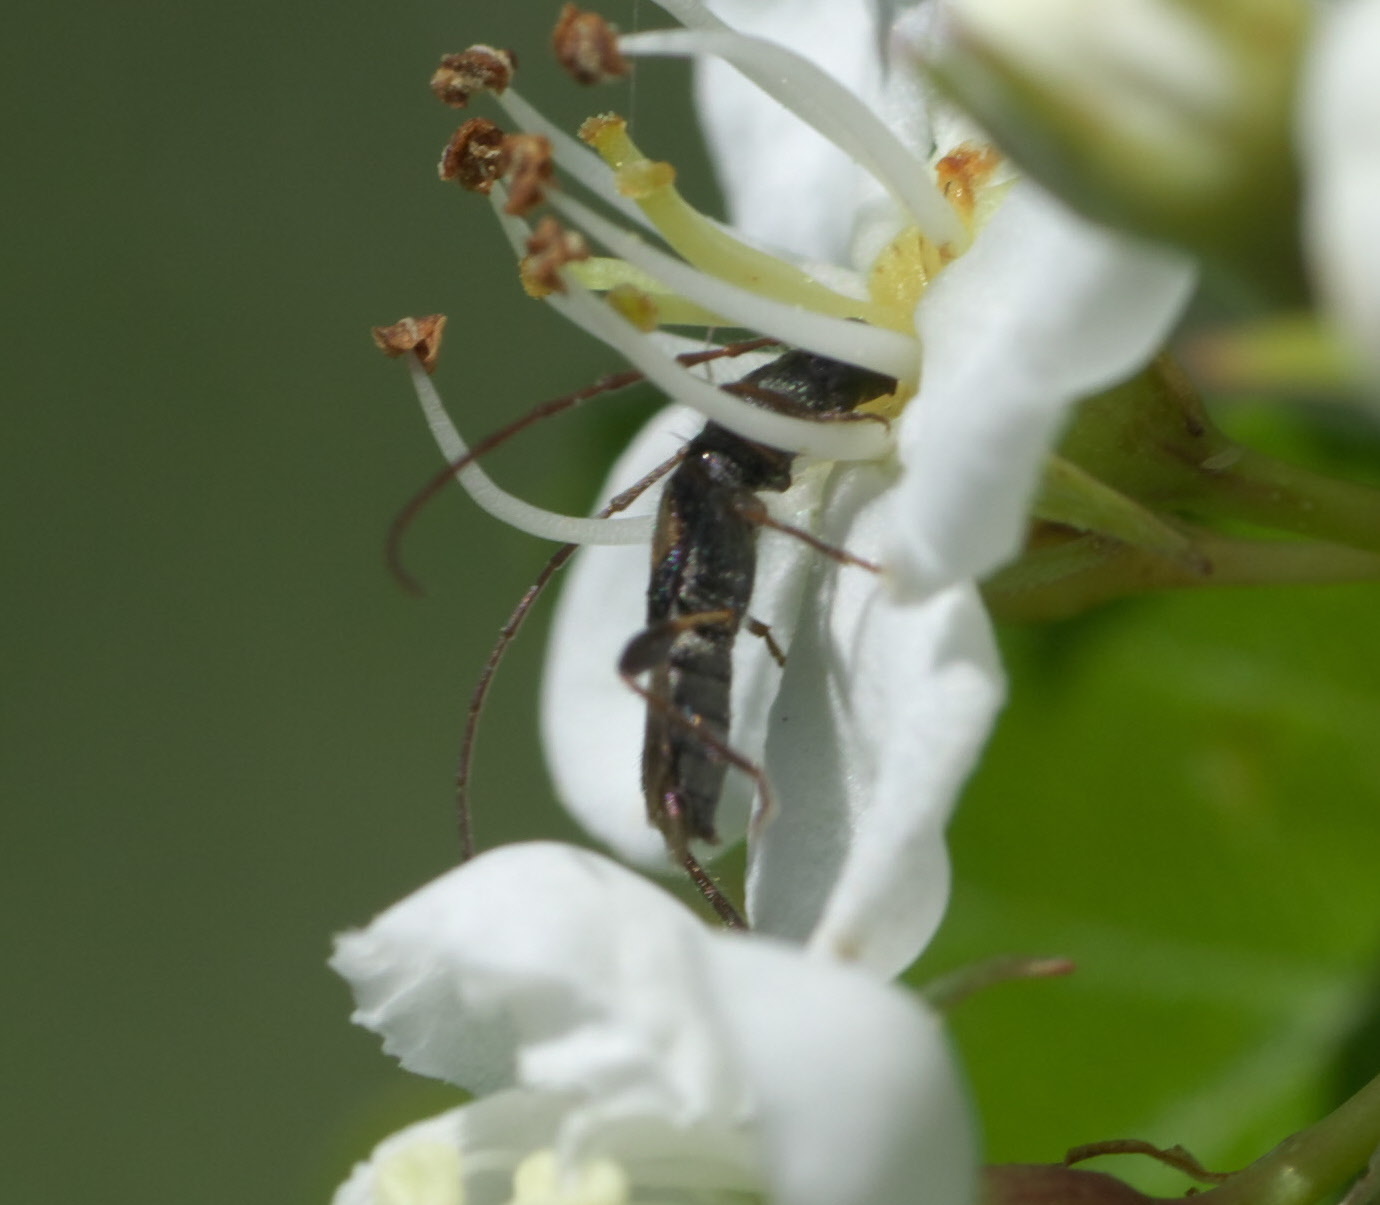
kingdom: Animalia
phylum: Arthropoda
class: Insecta
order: Coleoptera
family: Cerambycidae
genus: Molorchus
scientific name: Molorchus bimaculatus
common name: Bimaculate longhorn beetle
